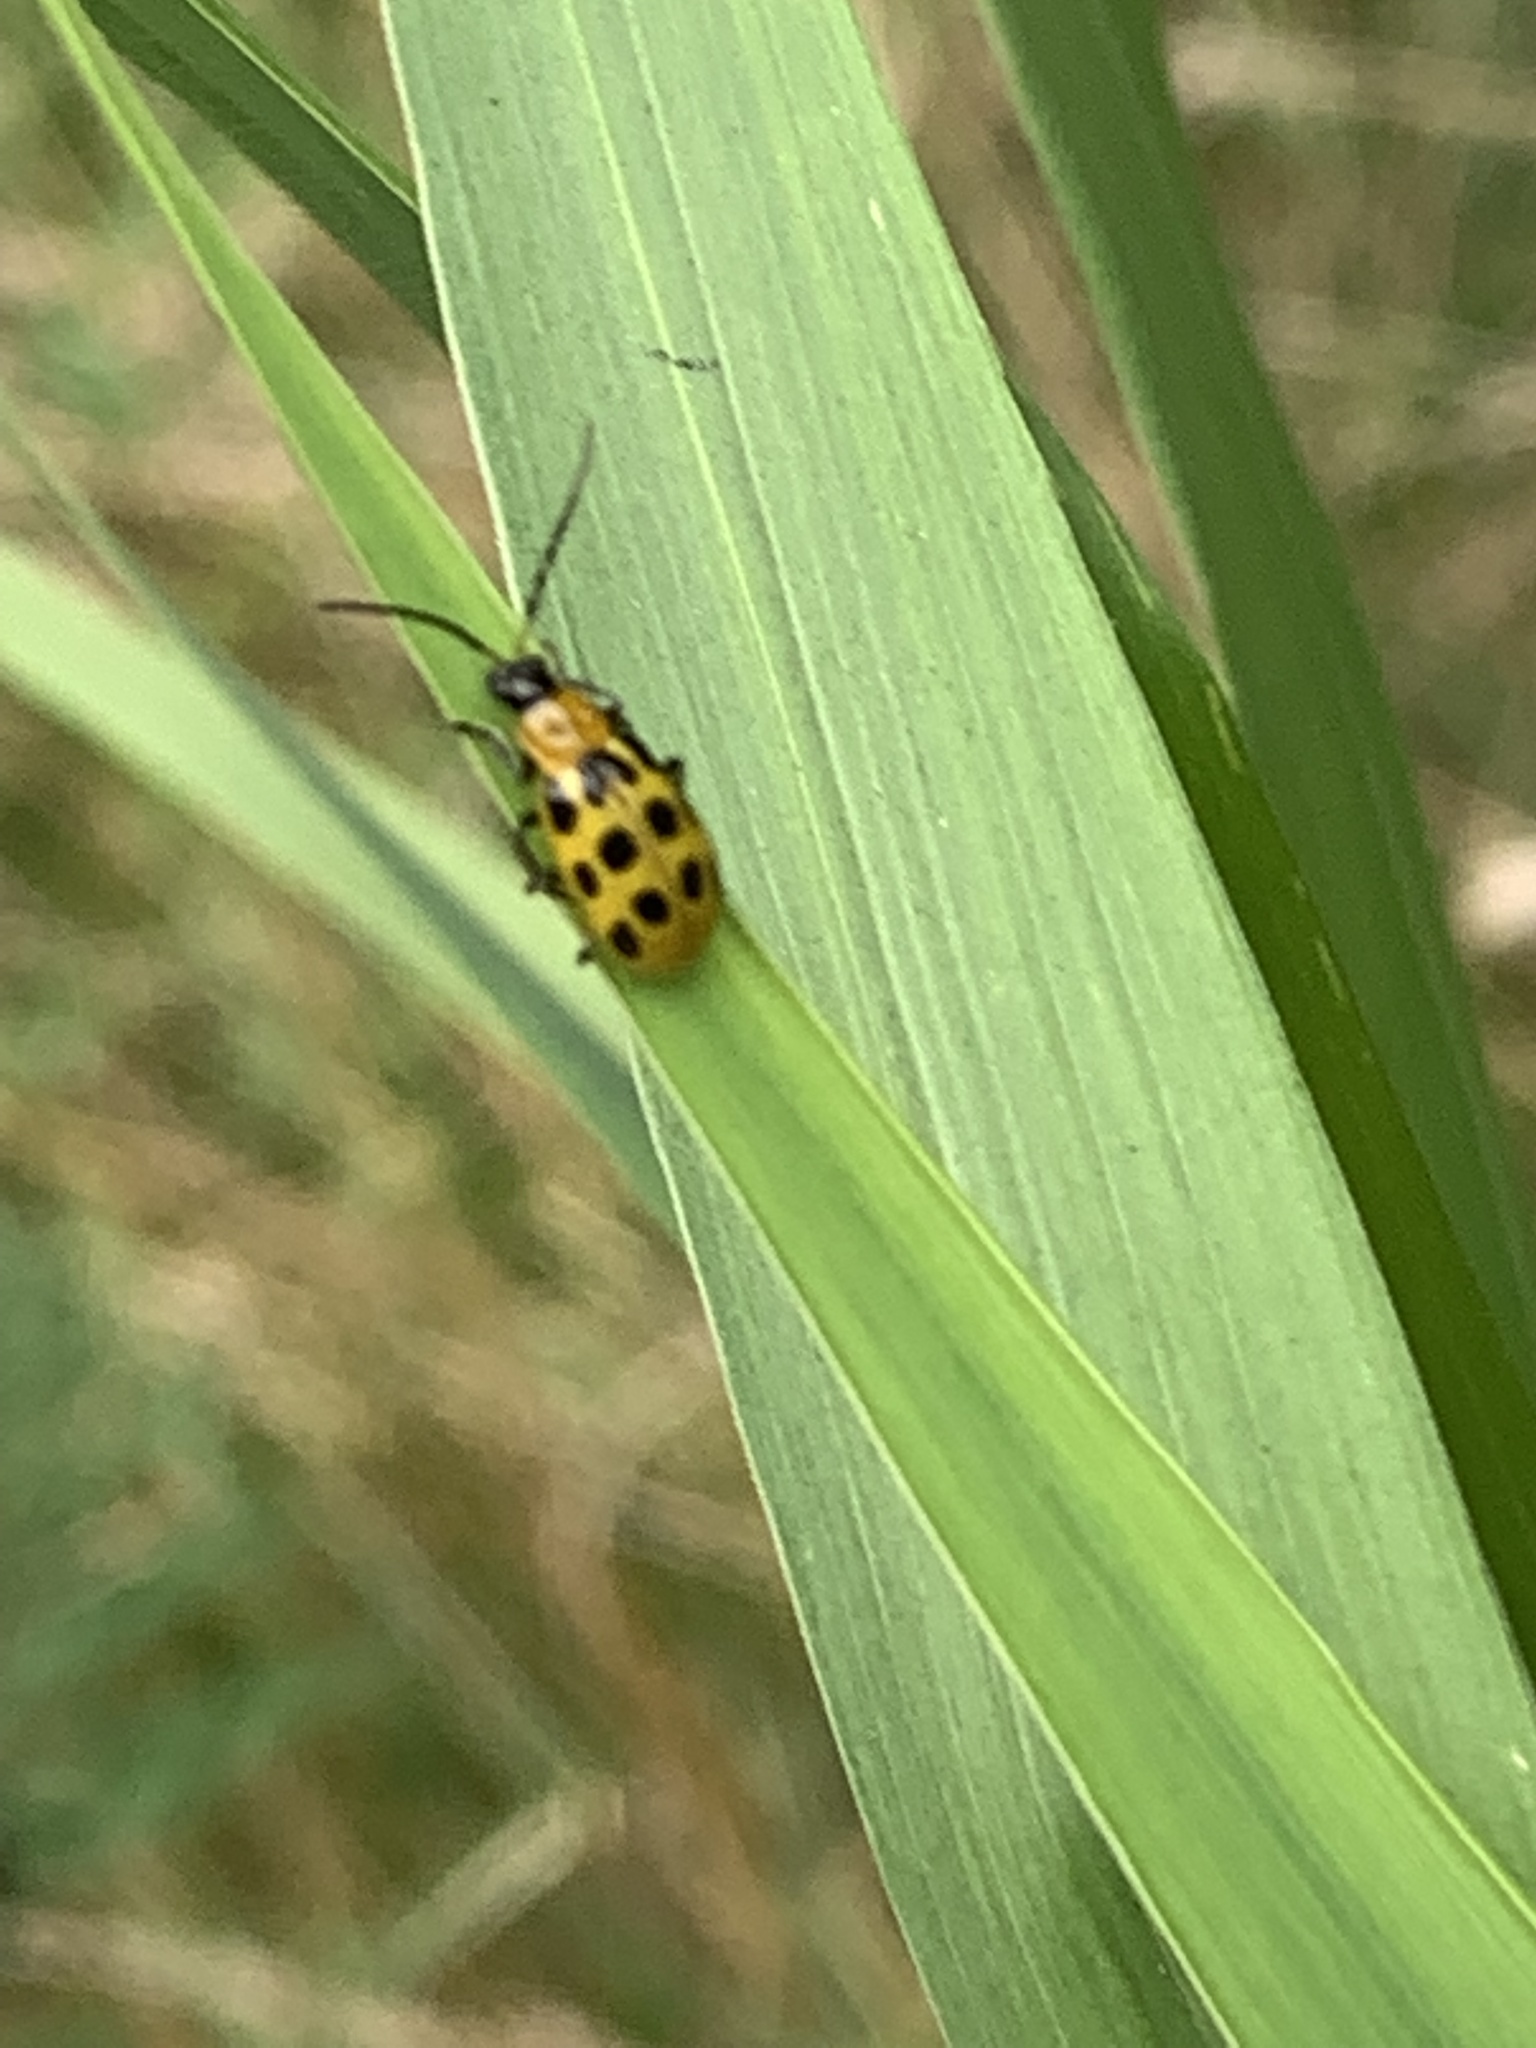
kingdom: Animalia
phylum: Arthropoda
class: Insecta
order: Coleoptera
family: Chrysomelidae
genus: Diabrotica
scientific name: Diabrotica undecimpunctata
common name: Spotted cucumber beetle
